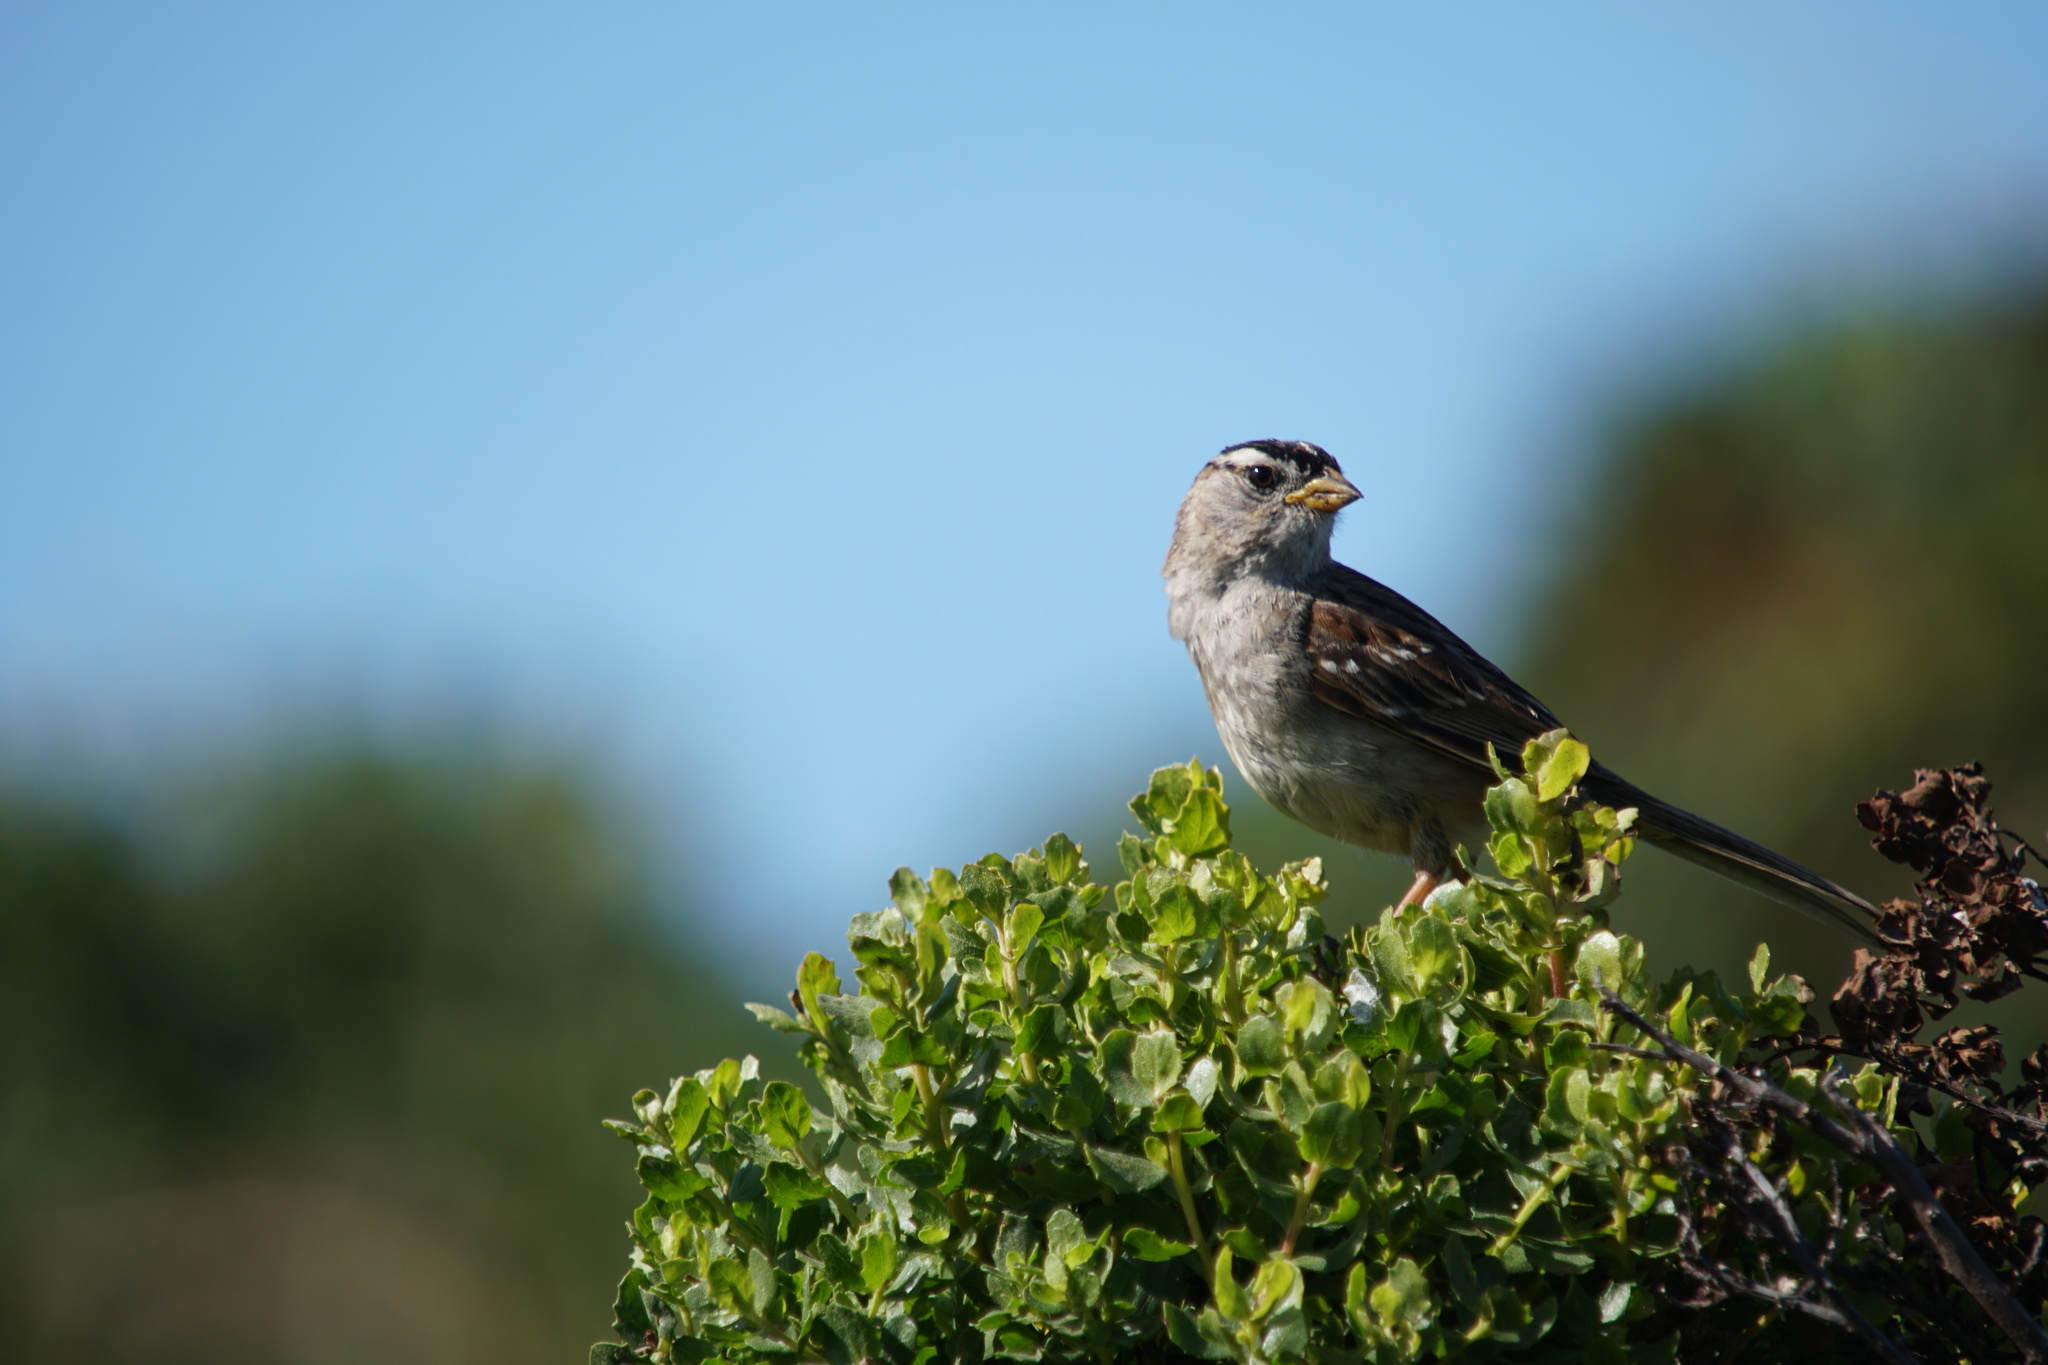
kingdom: Animalia
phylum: Chordata
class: Aves
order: Passeriformes
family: Passerellidae
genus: Zonotrichia
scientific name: Zonotrichia leucophrys
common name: White-crowned sparrow
